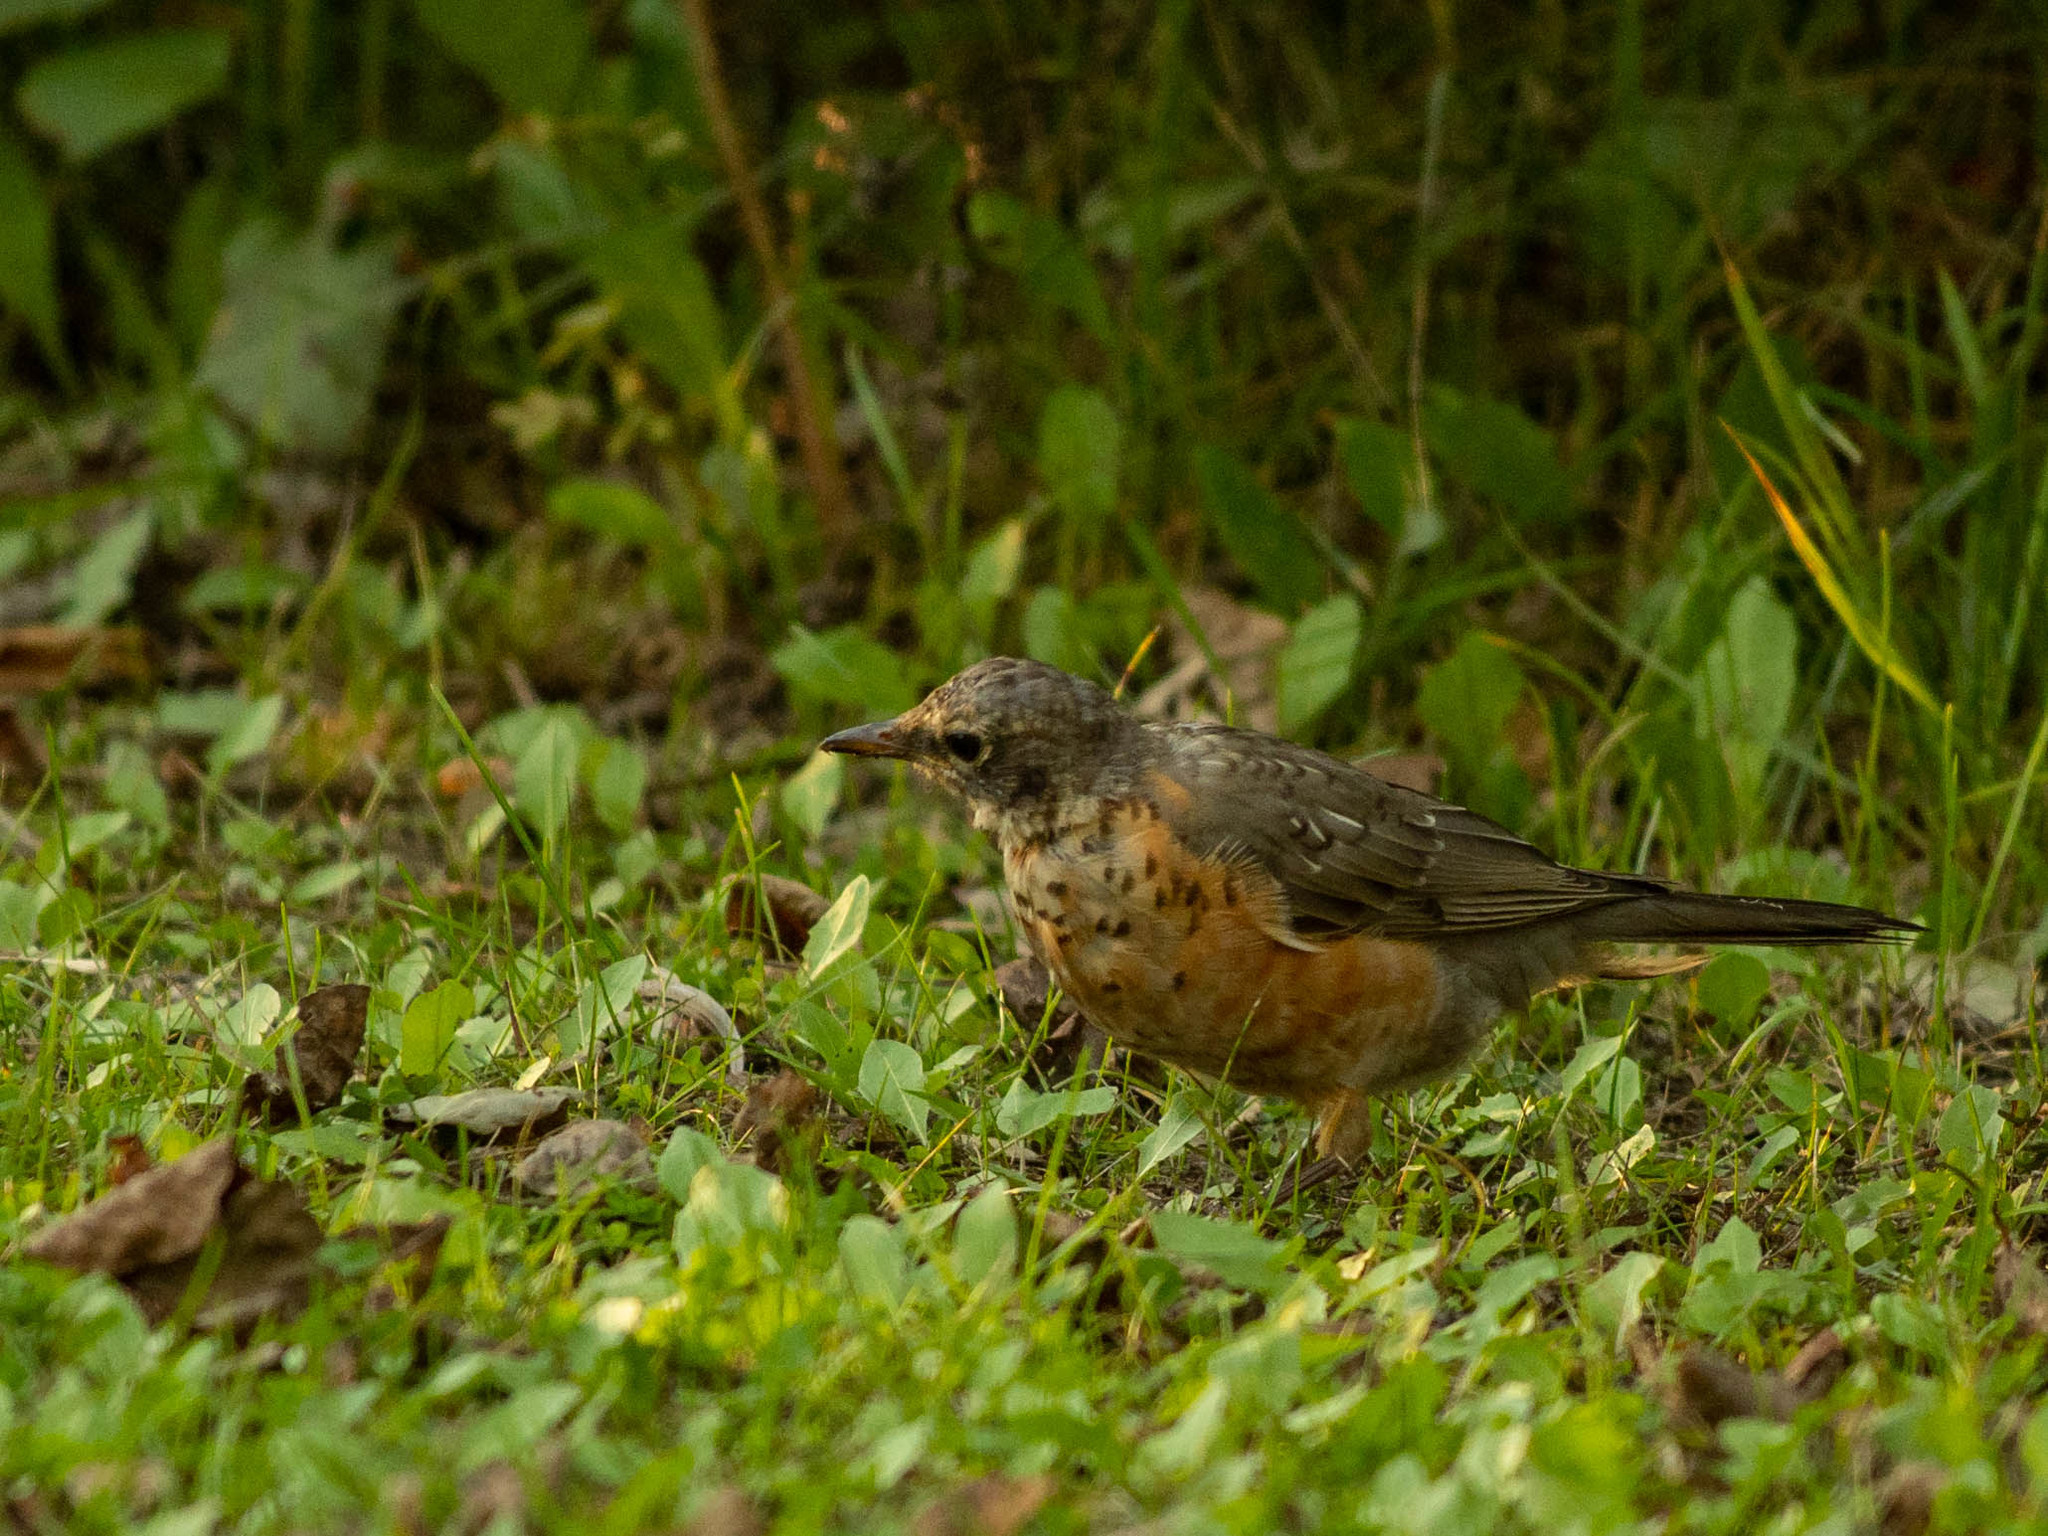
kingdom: Animalia
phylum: Chordata
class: Aves
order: Passeriformes
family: Turdidae
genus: Turdus
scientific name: Turdus migratorius
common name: American robin
